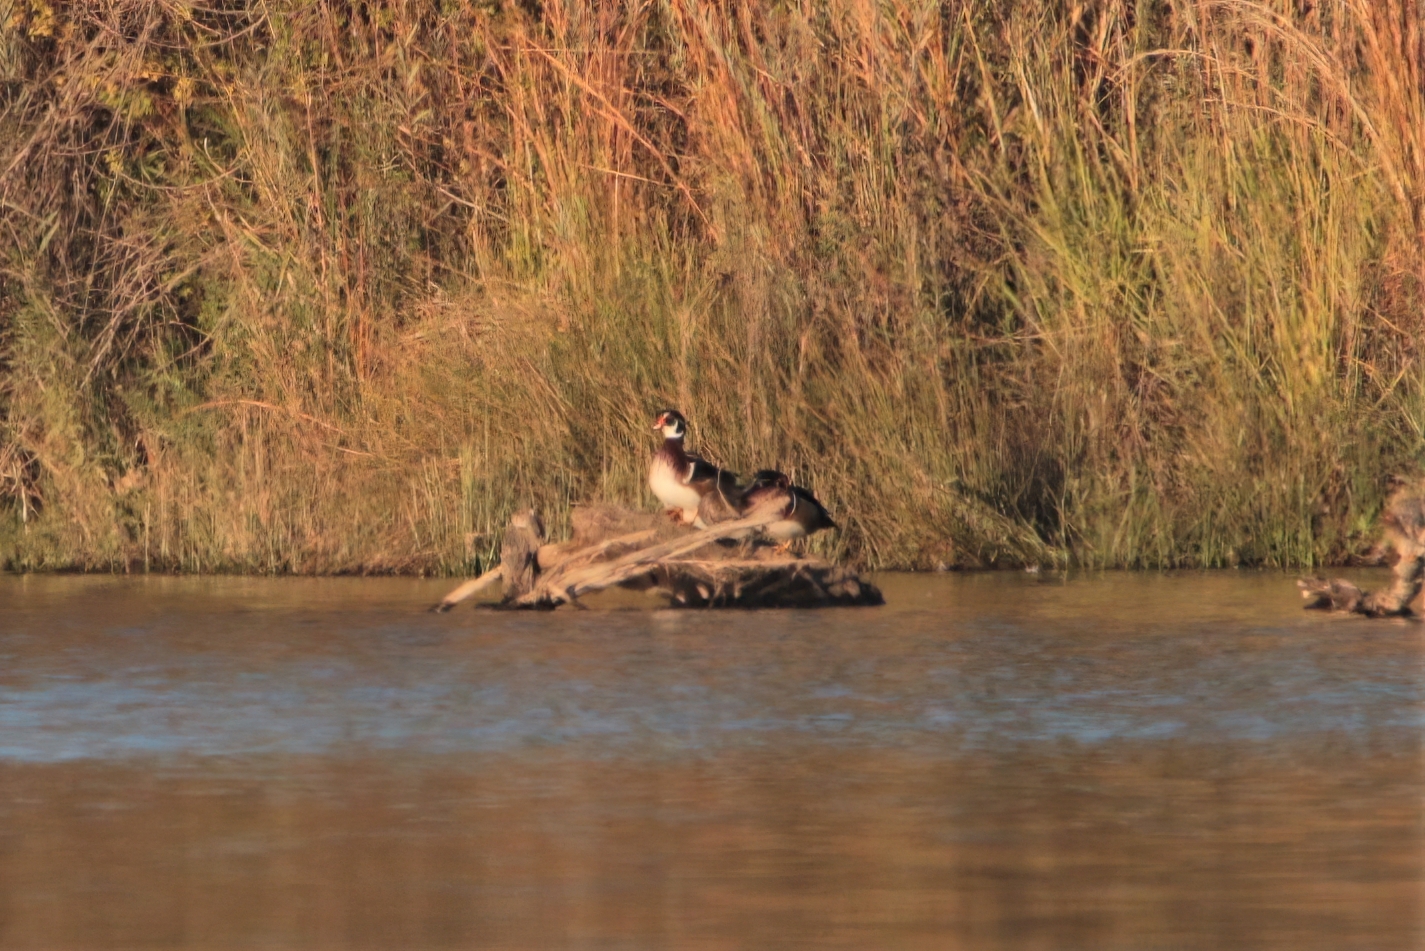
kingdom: Animalia
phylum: Chordata
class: Aves
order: Anseriformes
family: Anatidae
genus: Aix
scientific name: Aix sponsa
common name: Wood duck
